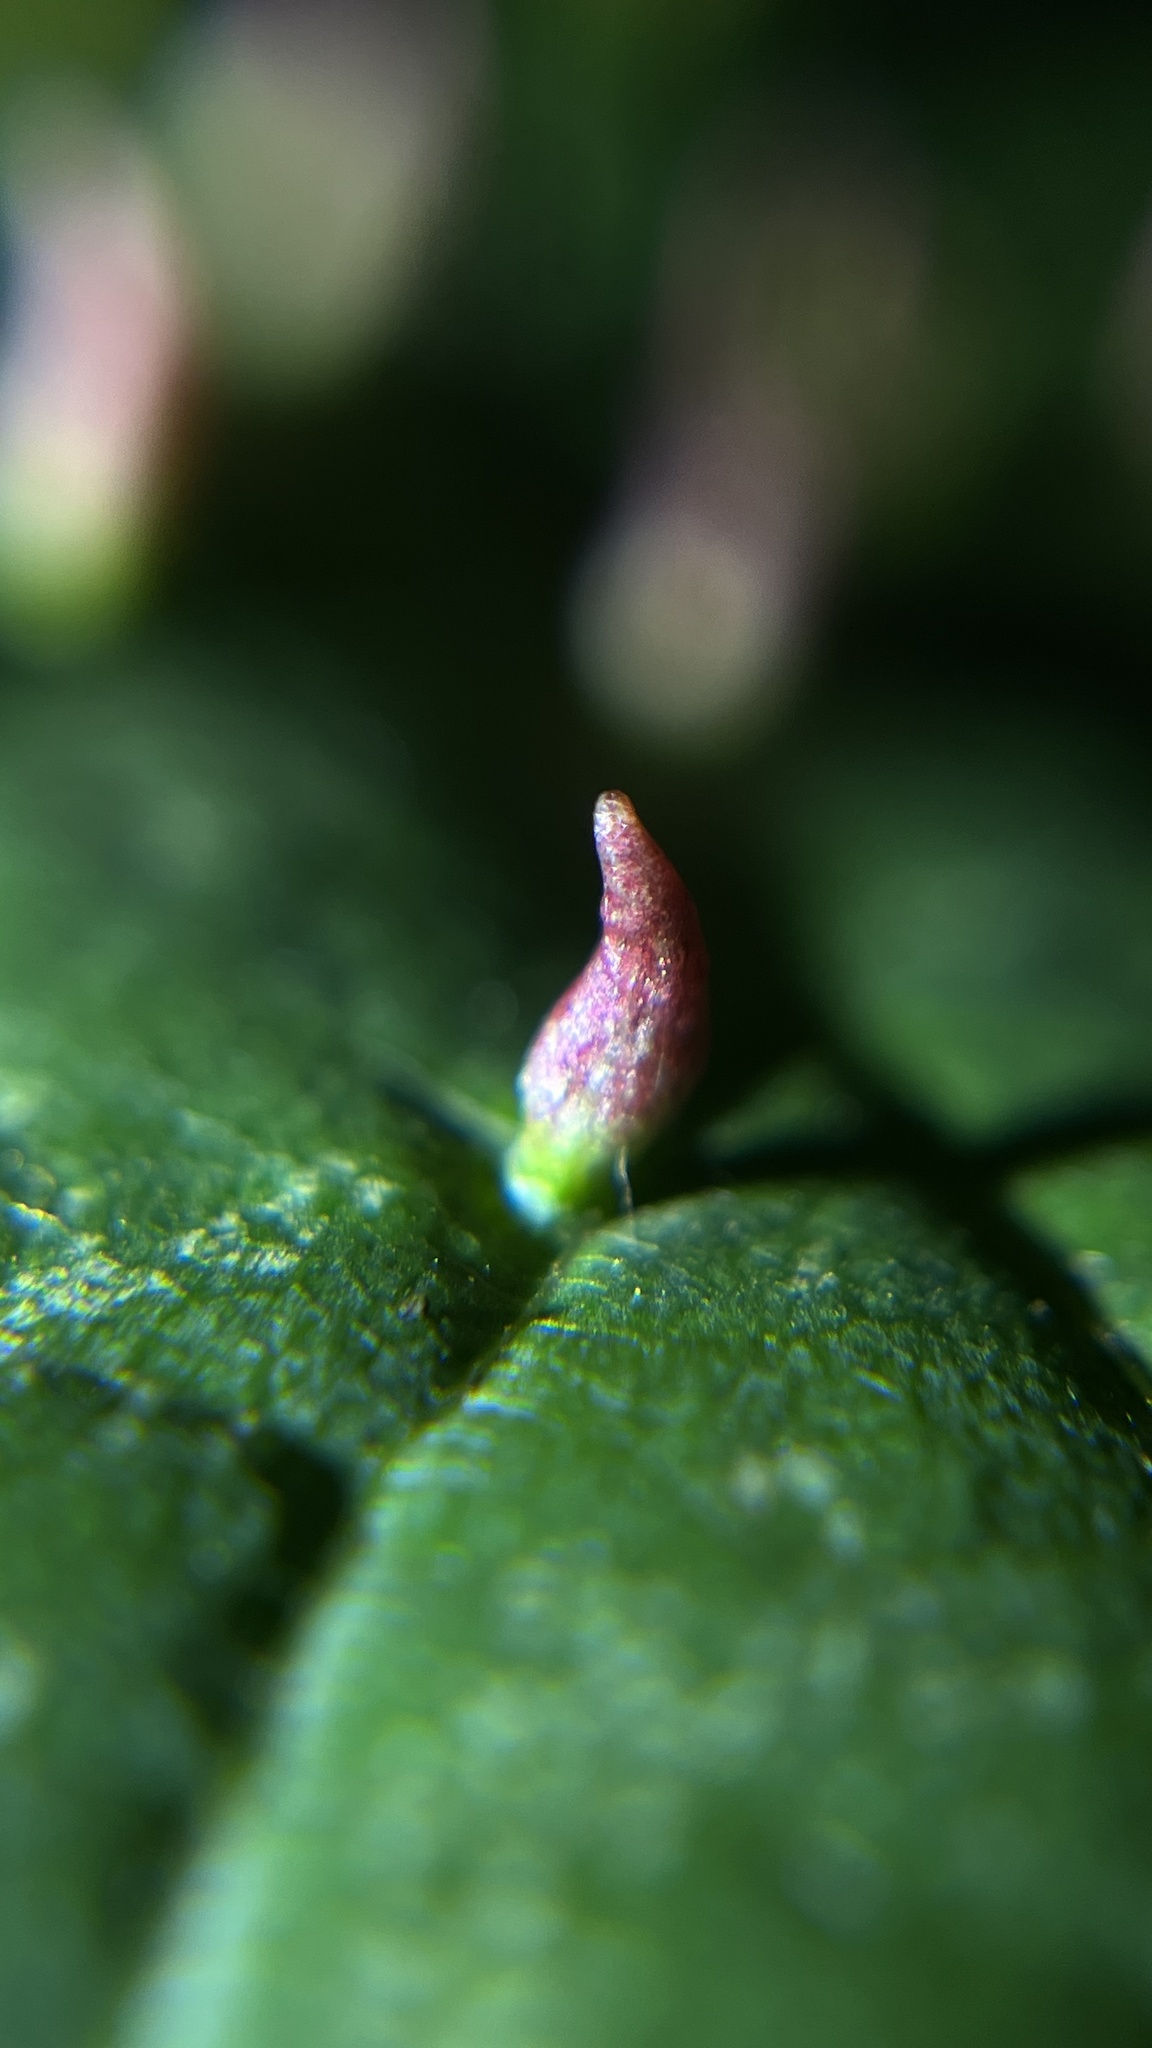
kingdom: Animalia
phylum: Arthropoda
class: Arachnida
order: Trombidiformes
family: Eriophyidae
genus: Eriophyes
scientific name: Eriophyes tiliae
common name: Red nail gall mite
